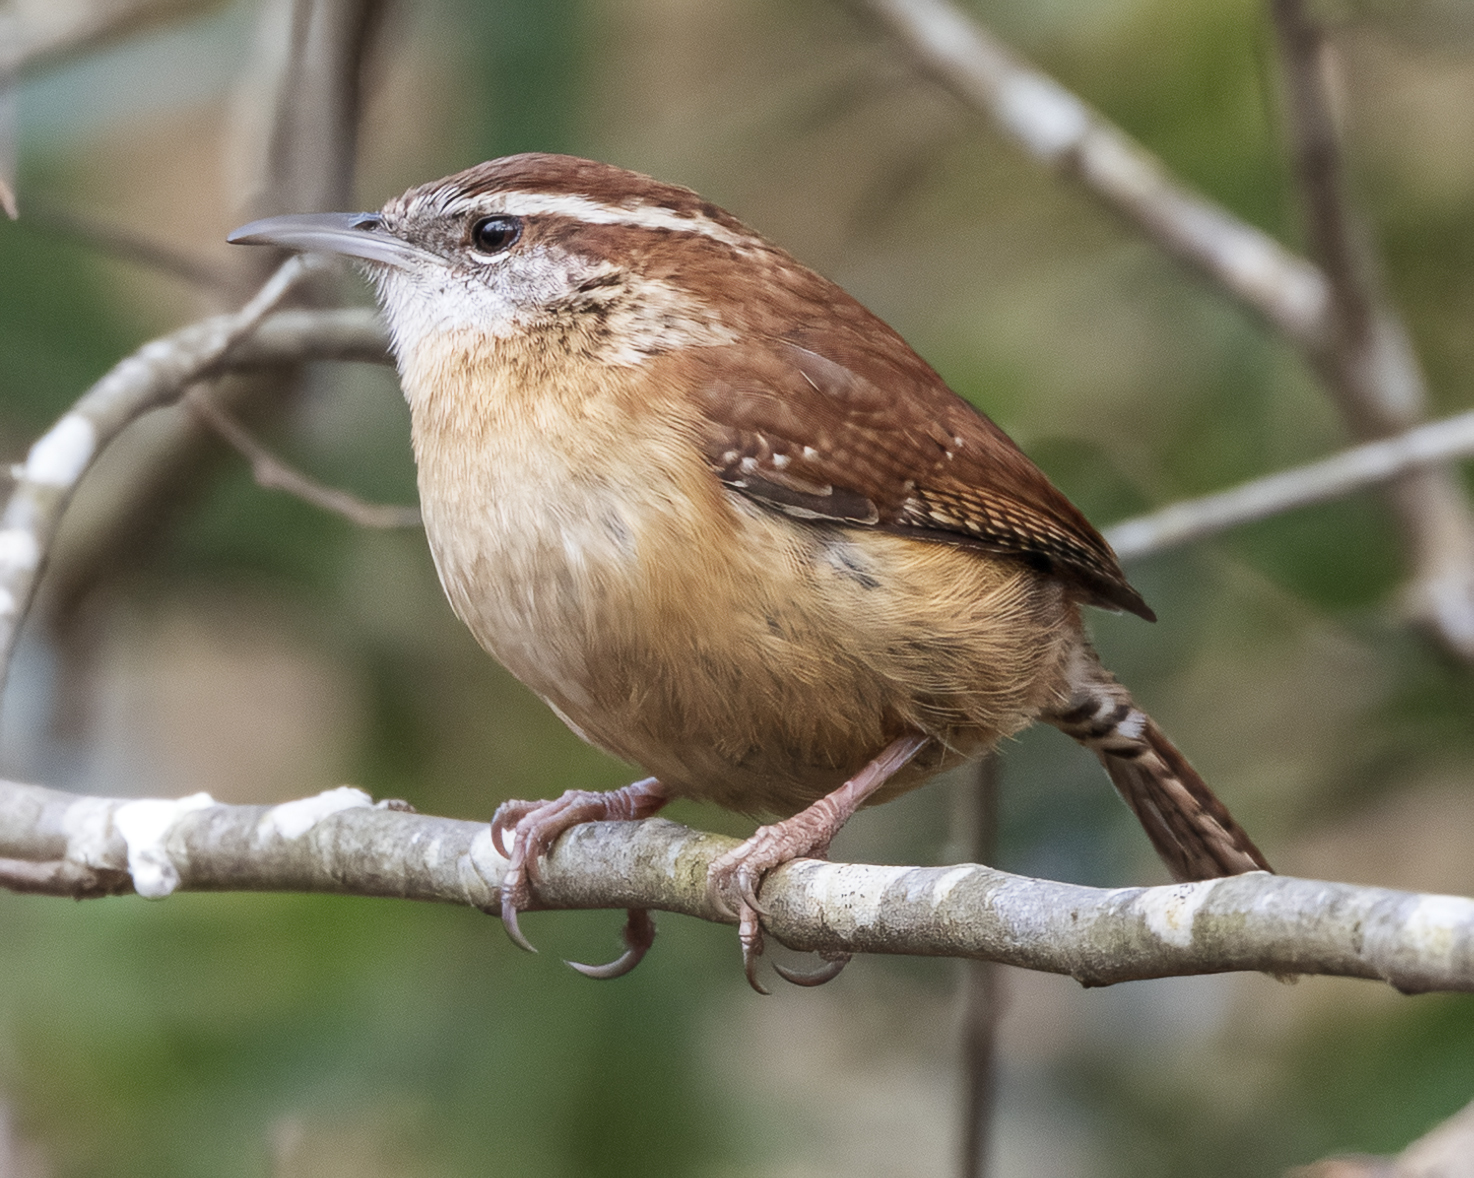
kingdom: Animalia
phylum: Chordata
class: Aves
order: Passeriformes
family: Troglodytidae
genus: Thryothorus
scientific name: Thryothorus ludovicianus
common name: Carolina wren
